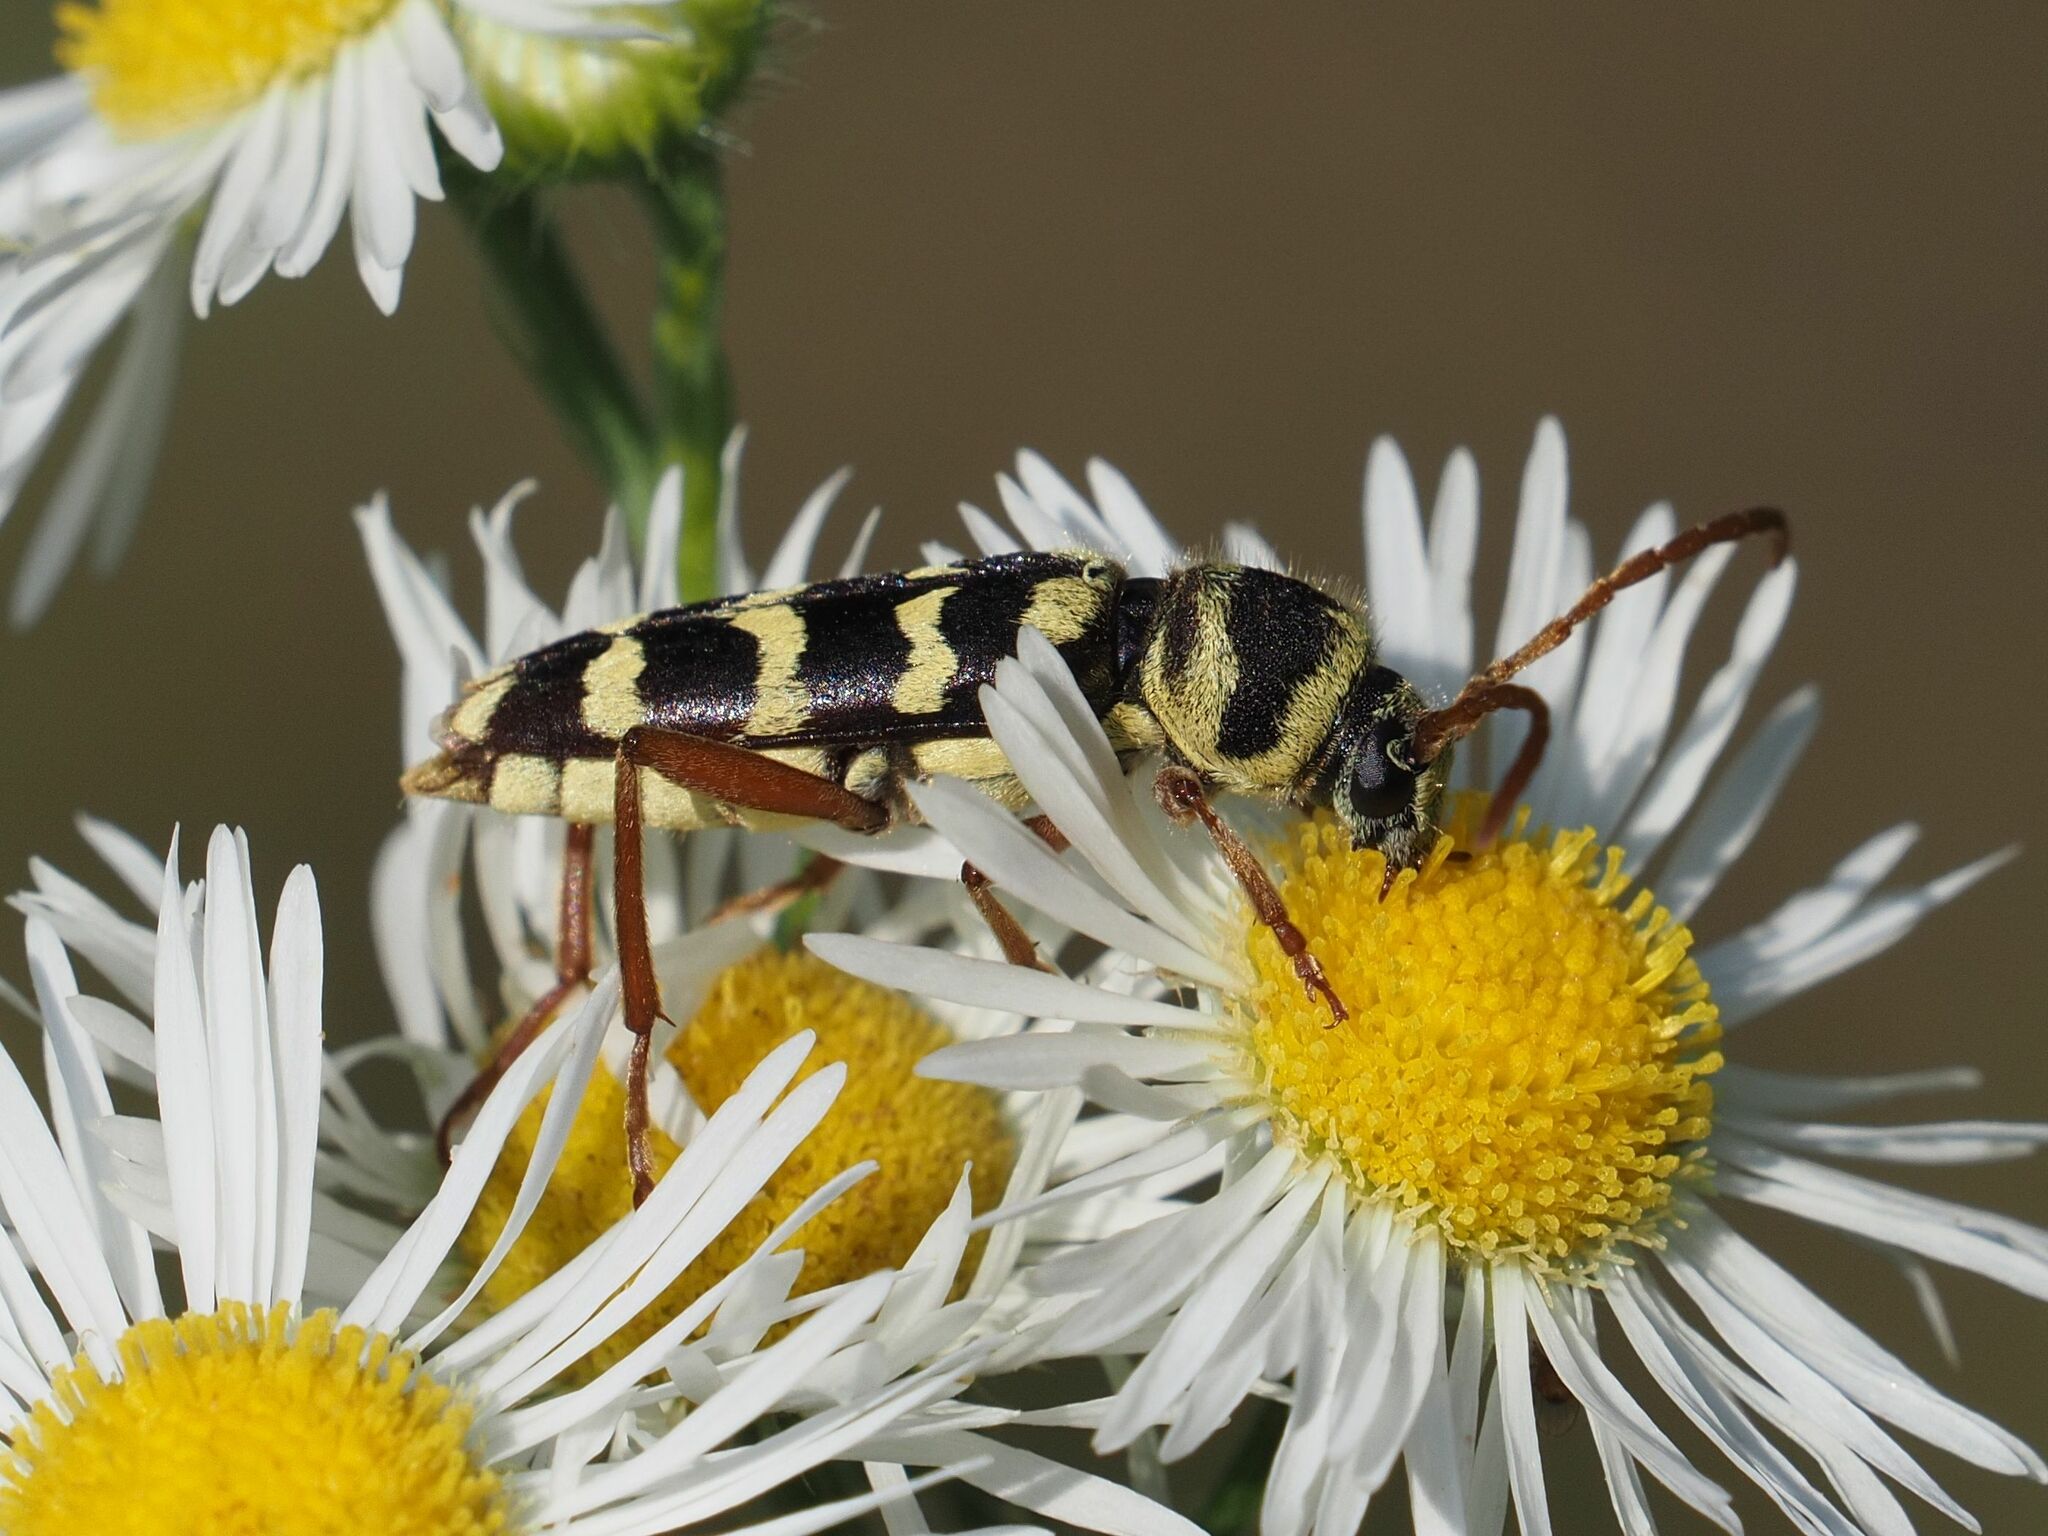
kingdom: Animalia
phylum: Arthropoda
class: Insecta
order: Coleoptera
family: Cerambycidae
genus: Plagionotus
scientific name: Plagionotus floralis
